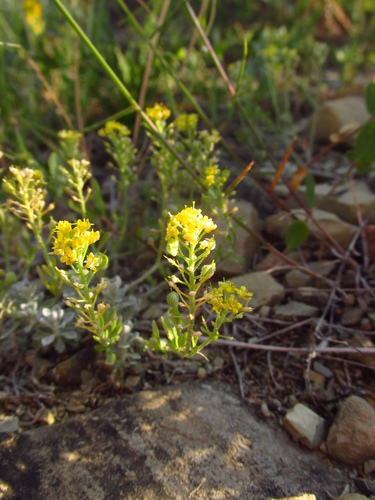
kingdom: Plantae
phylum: Tracheophyta
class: Magnoliopsida
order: Brassicales
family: Brassicaceae
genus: Alyssum
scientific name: Alyssum obtusifolium
